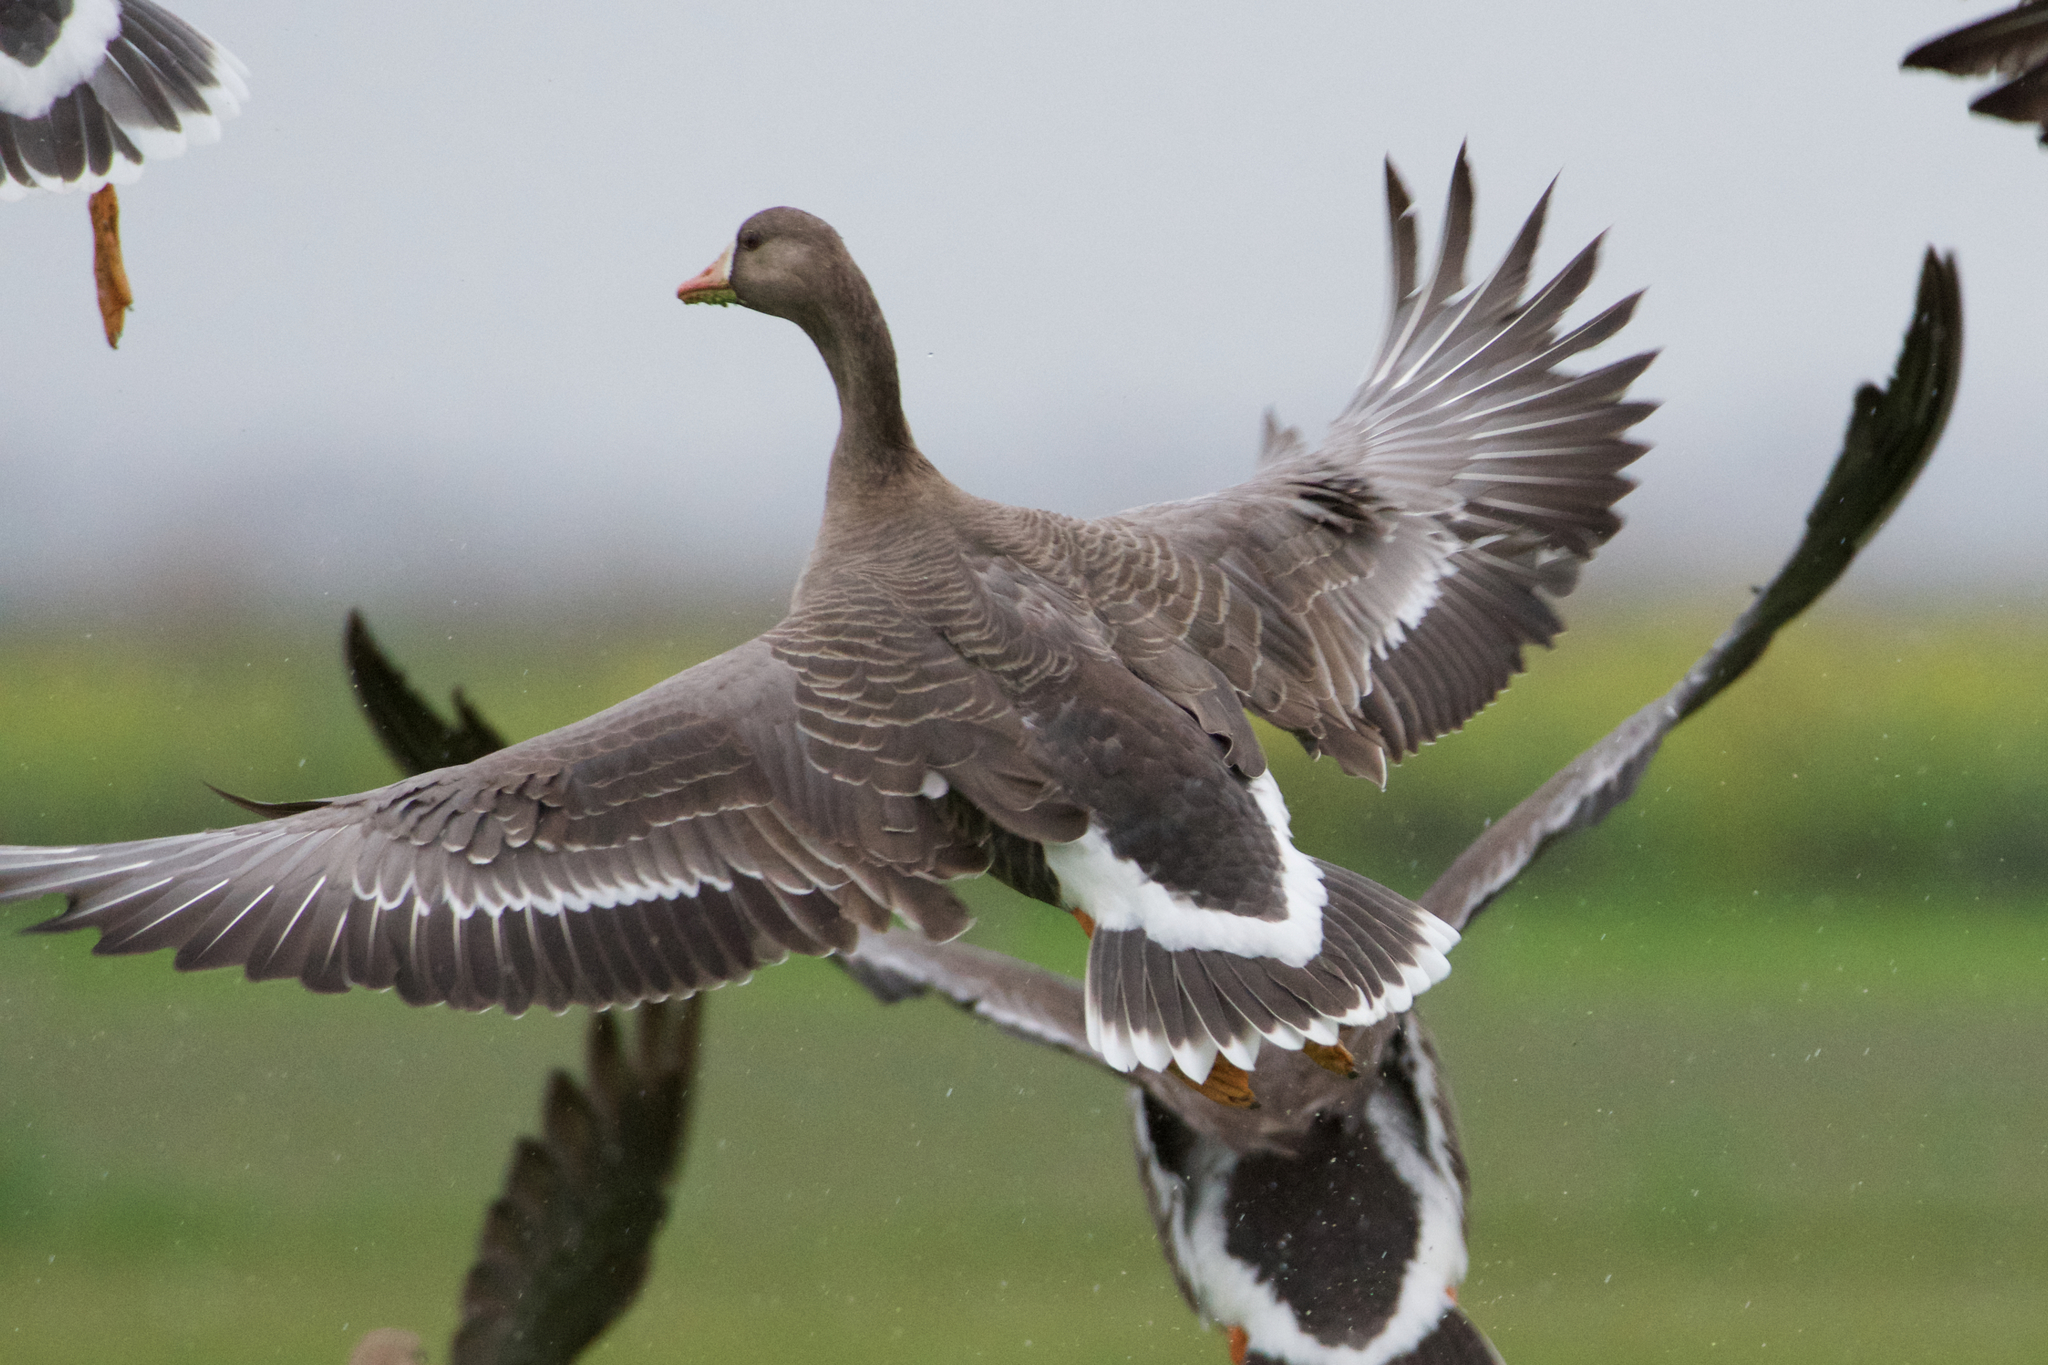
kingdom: Animalia
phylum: Chordata
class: Aves
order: Anseriformes
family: Anatidae
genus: Anser
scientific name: Anser albifrons
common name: Greater white-fronted goose
